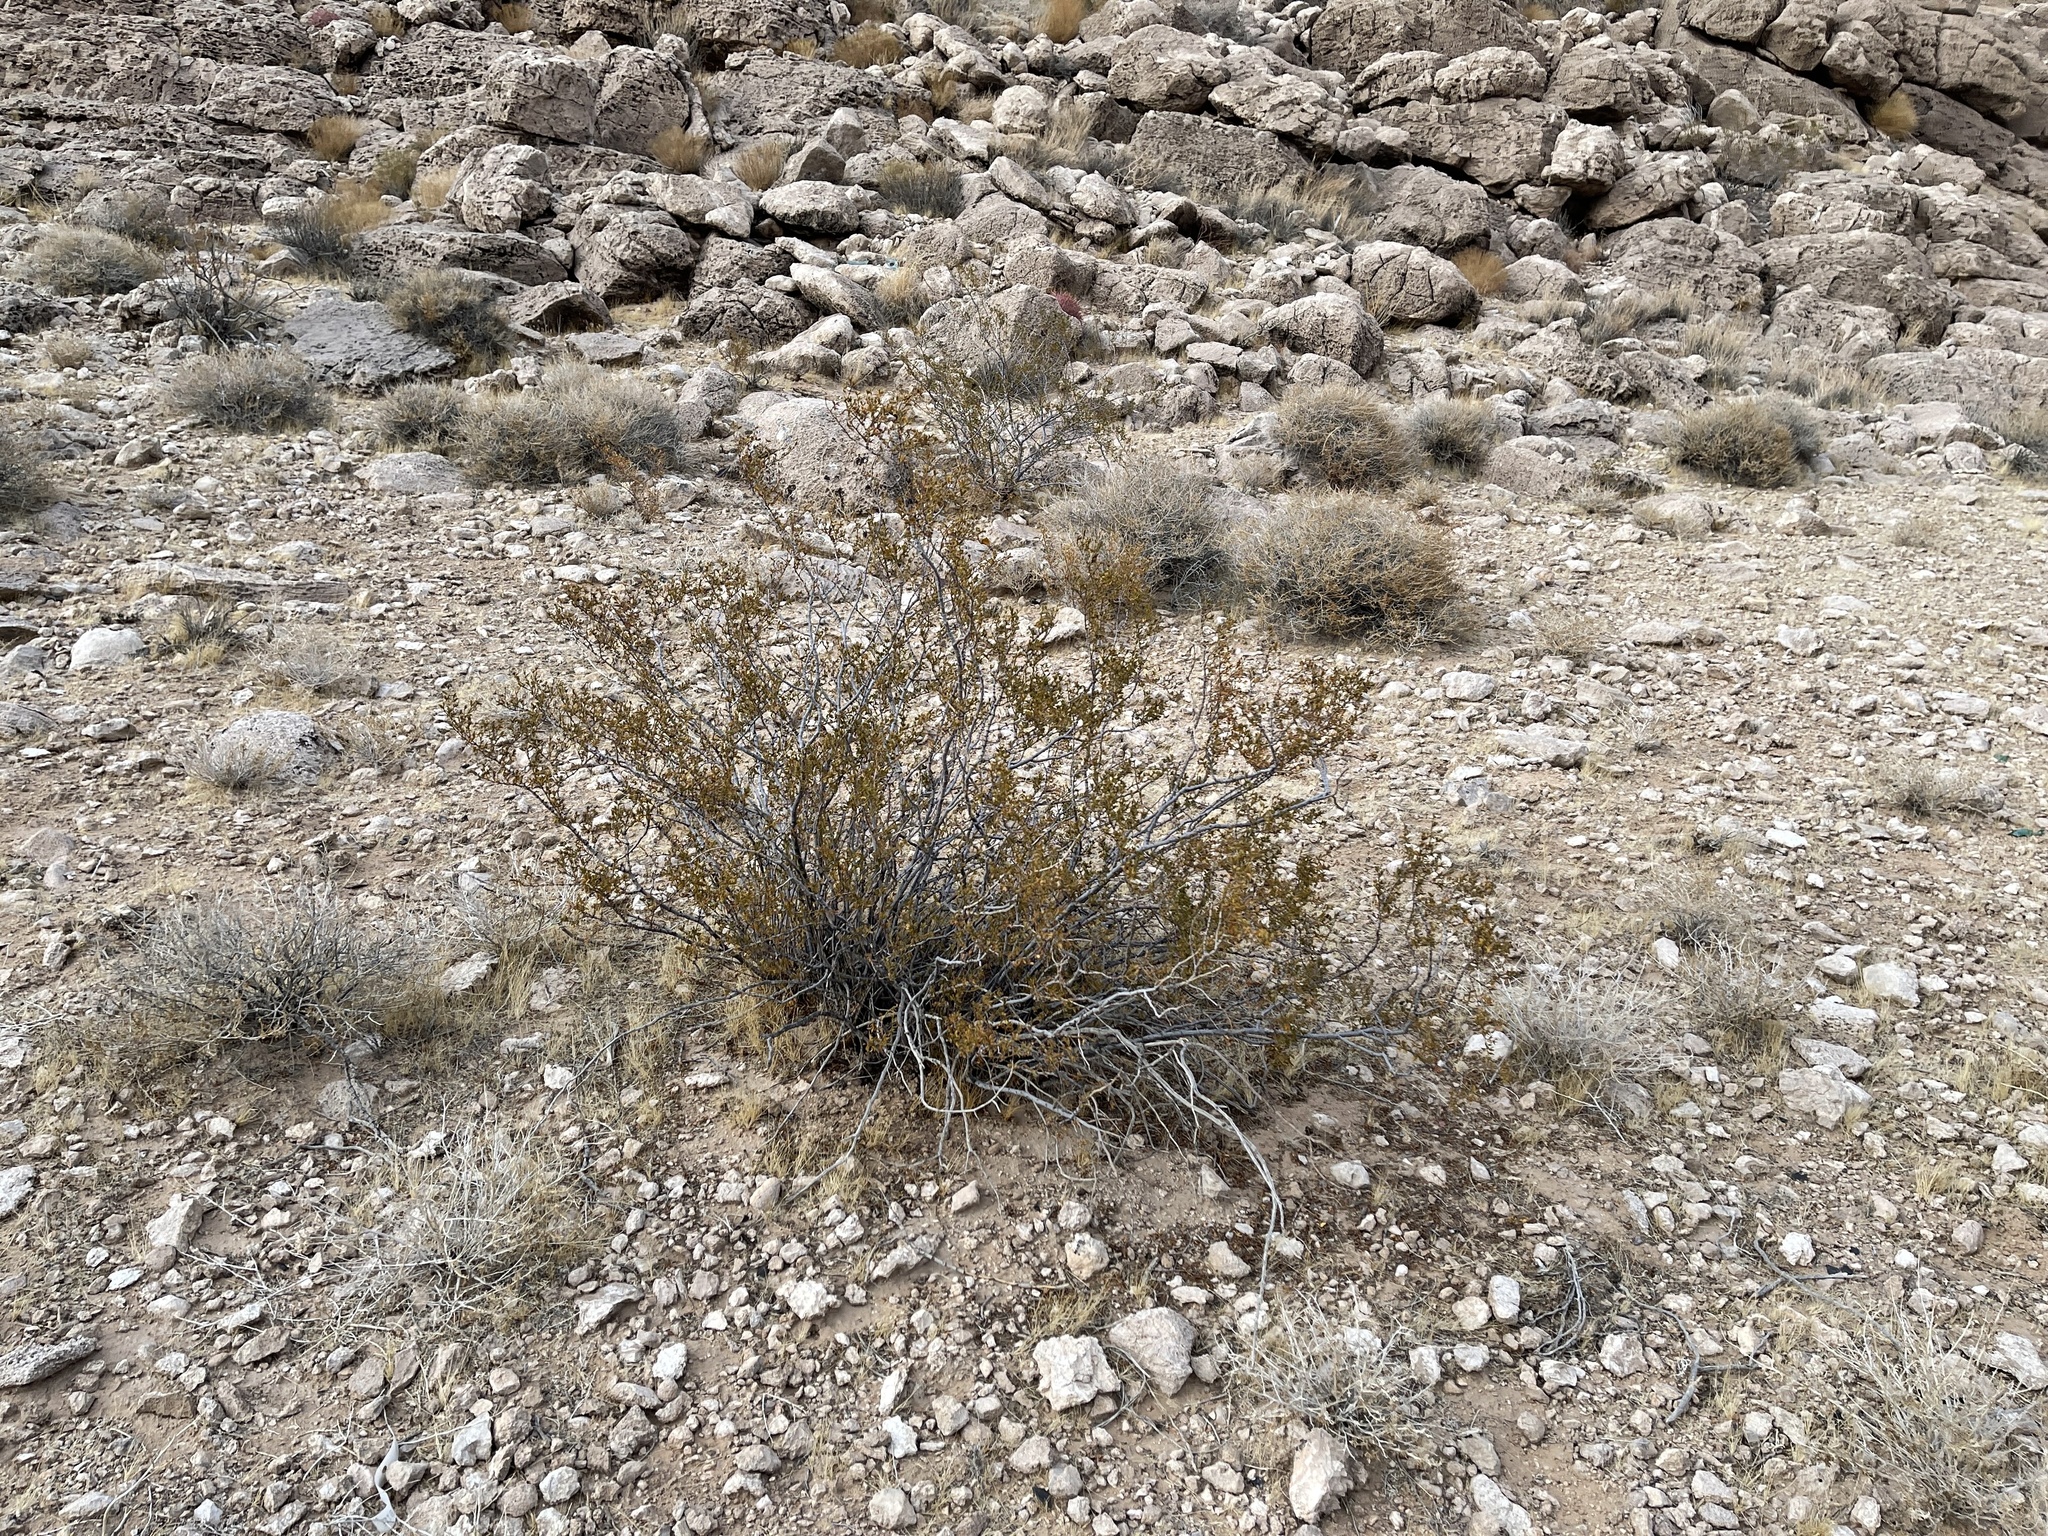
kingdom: Plantae
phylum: Tracheophyta
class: Magnoliopsida
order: Zygophyllales
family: Zygophyllaceae
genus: Larrea
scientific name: Larrea tridentata
